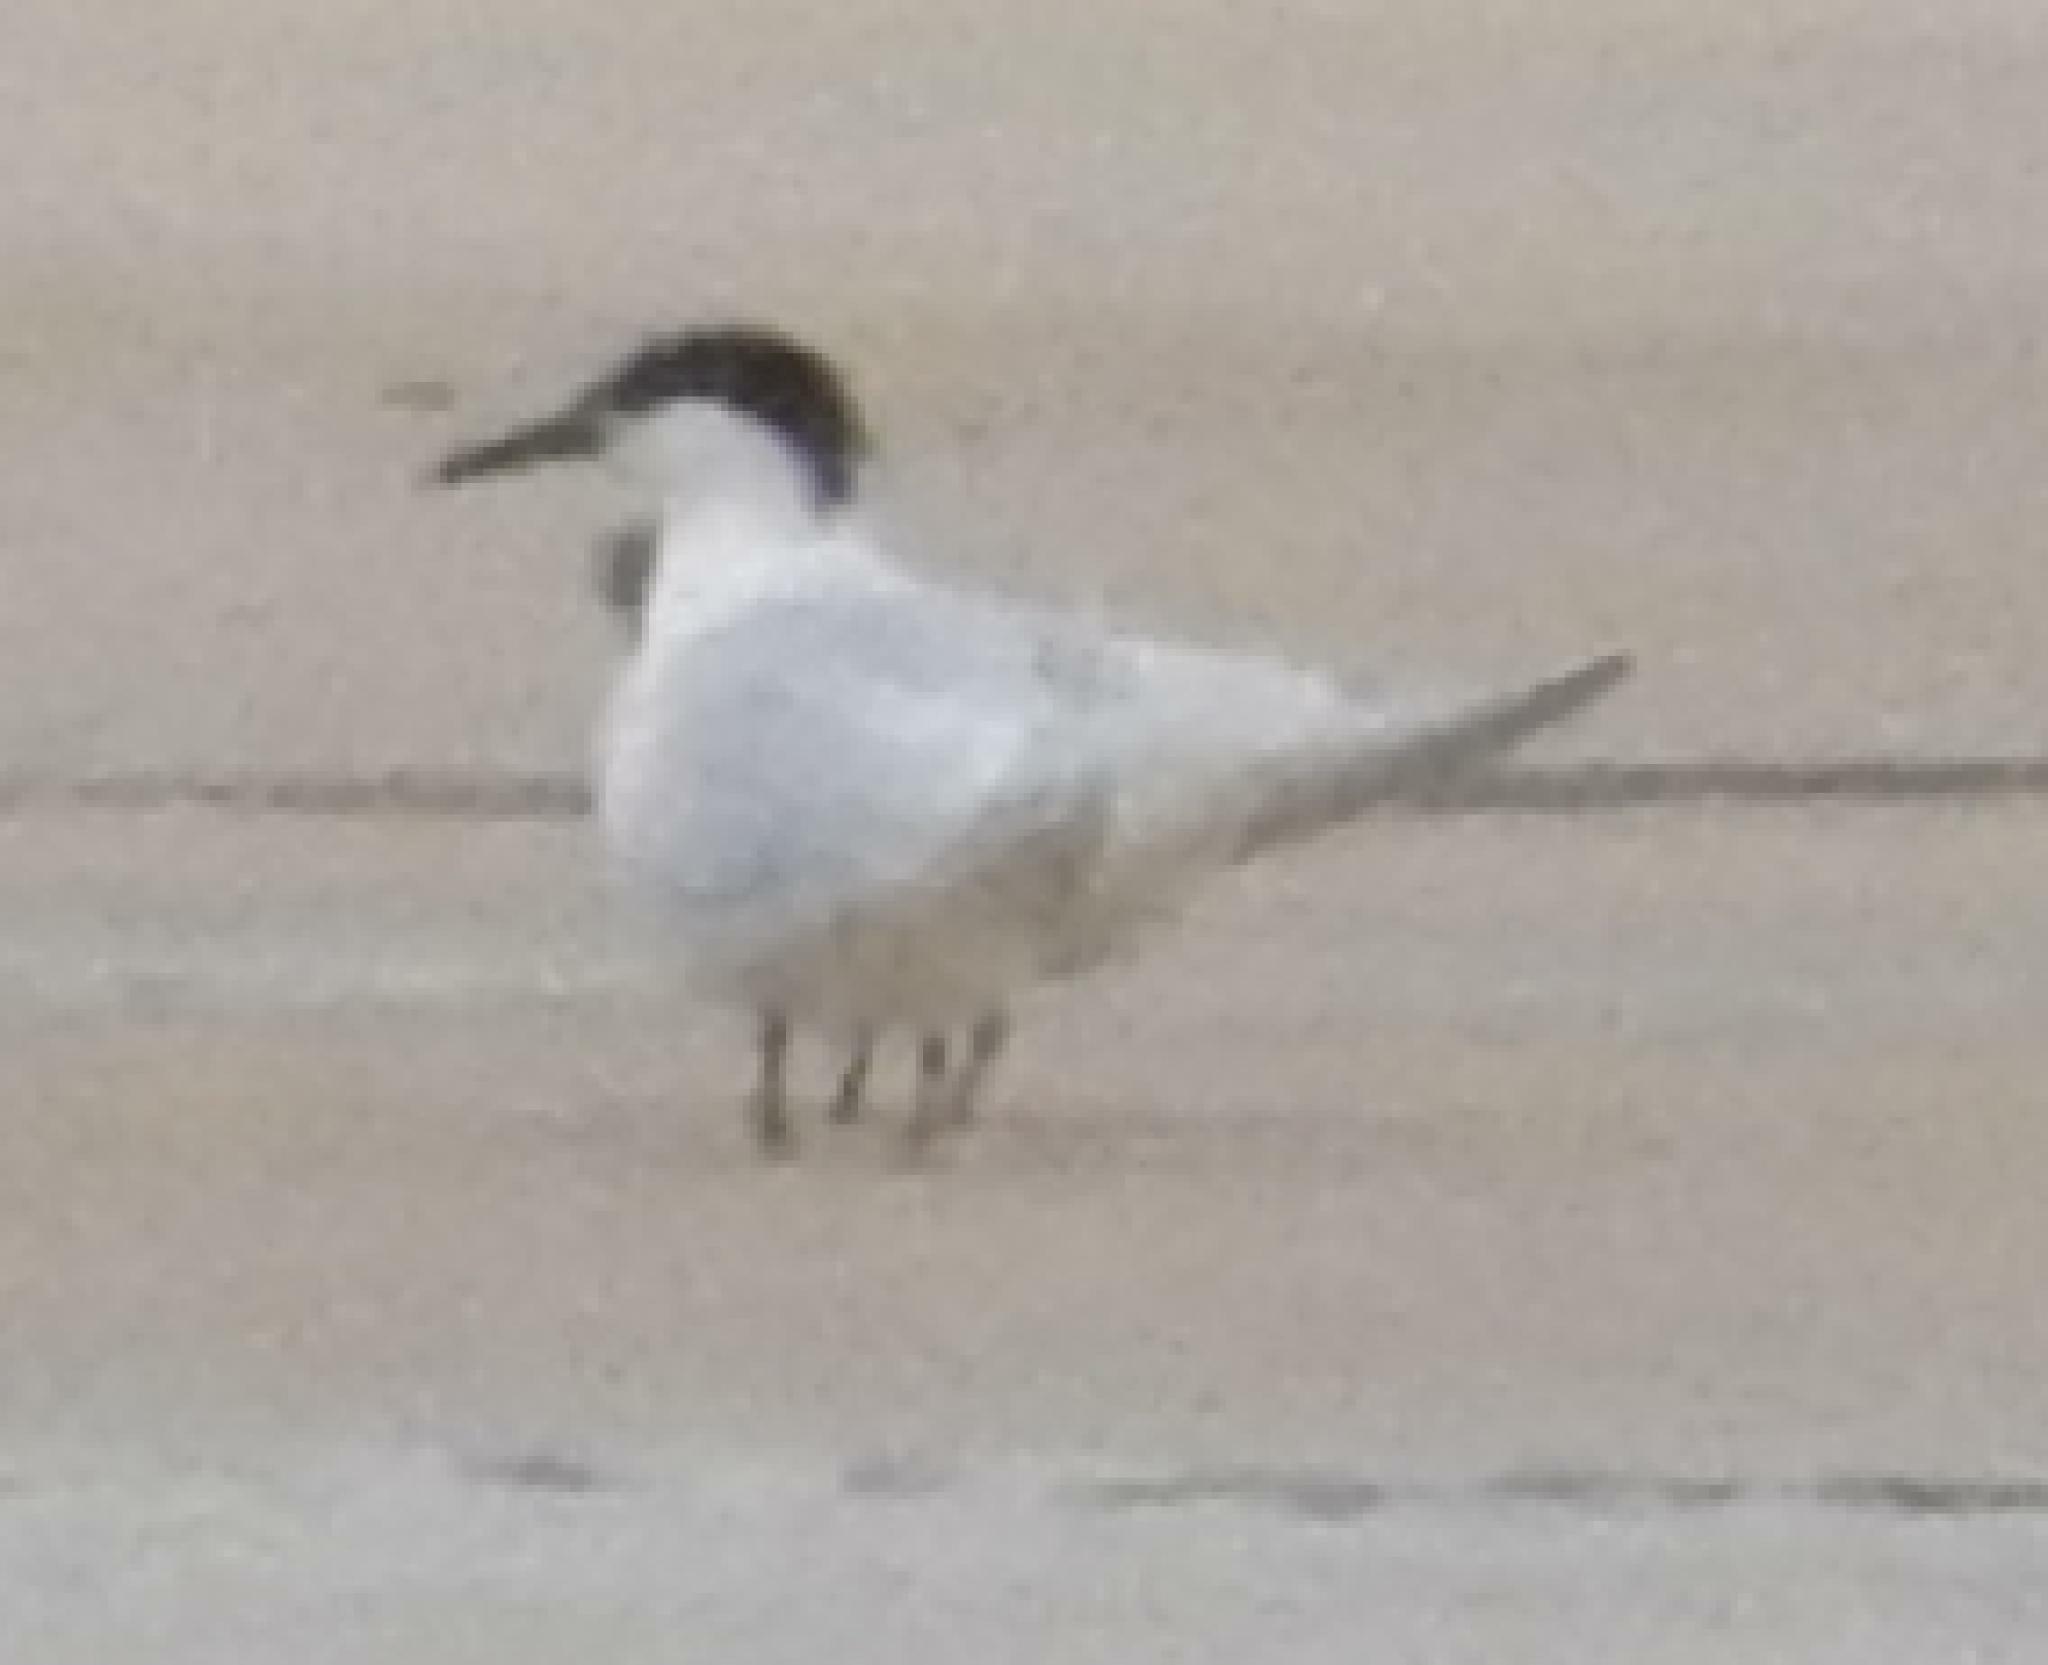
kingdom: Animalia
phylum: Chordata
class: Aves
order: Charadriiformes
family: Laridae
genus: Sterna
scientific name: Sterna hirundo
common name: Common tern
